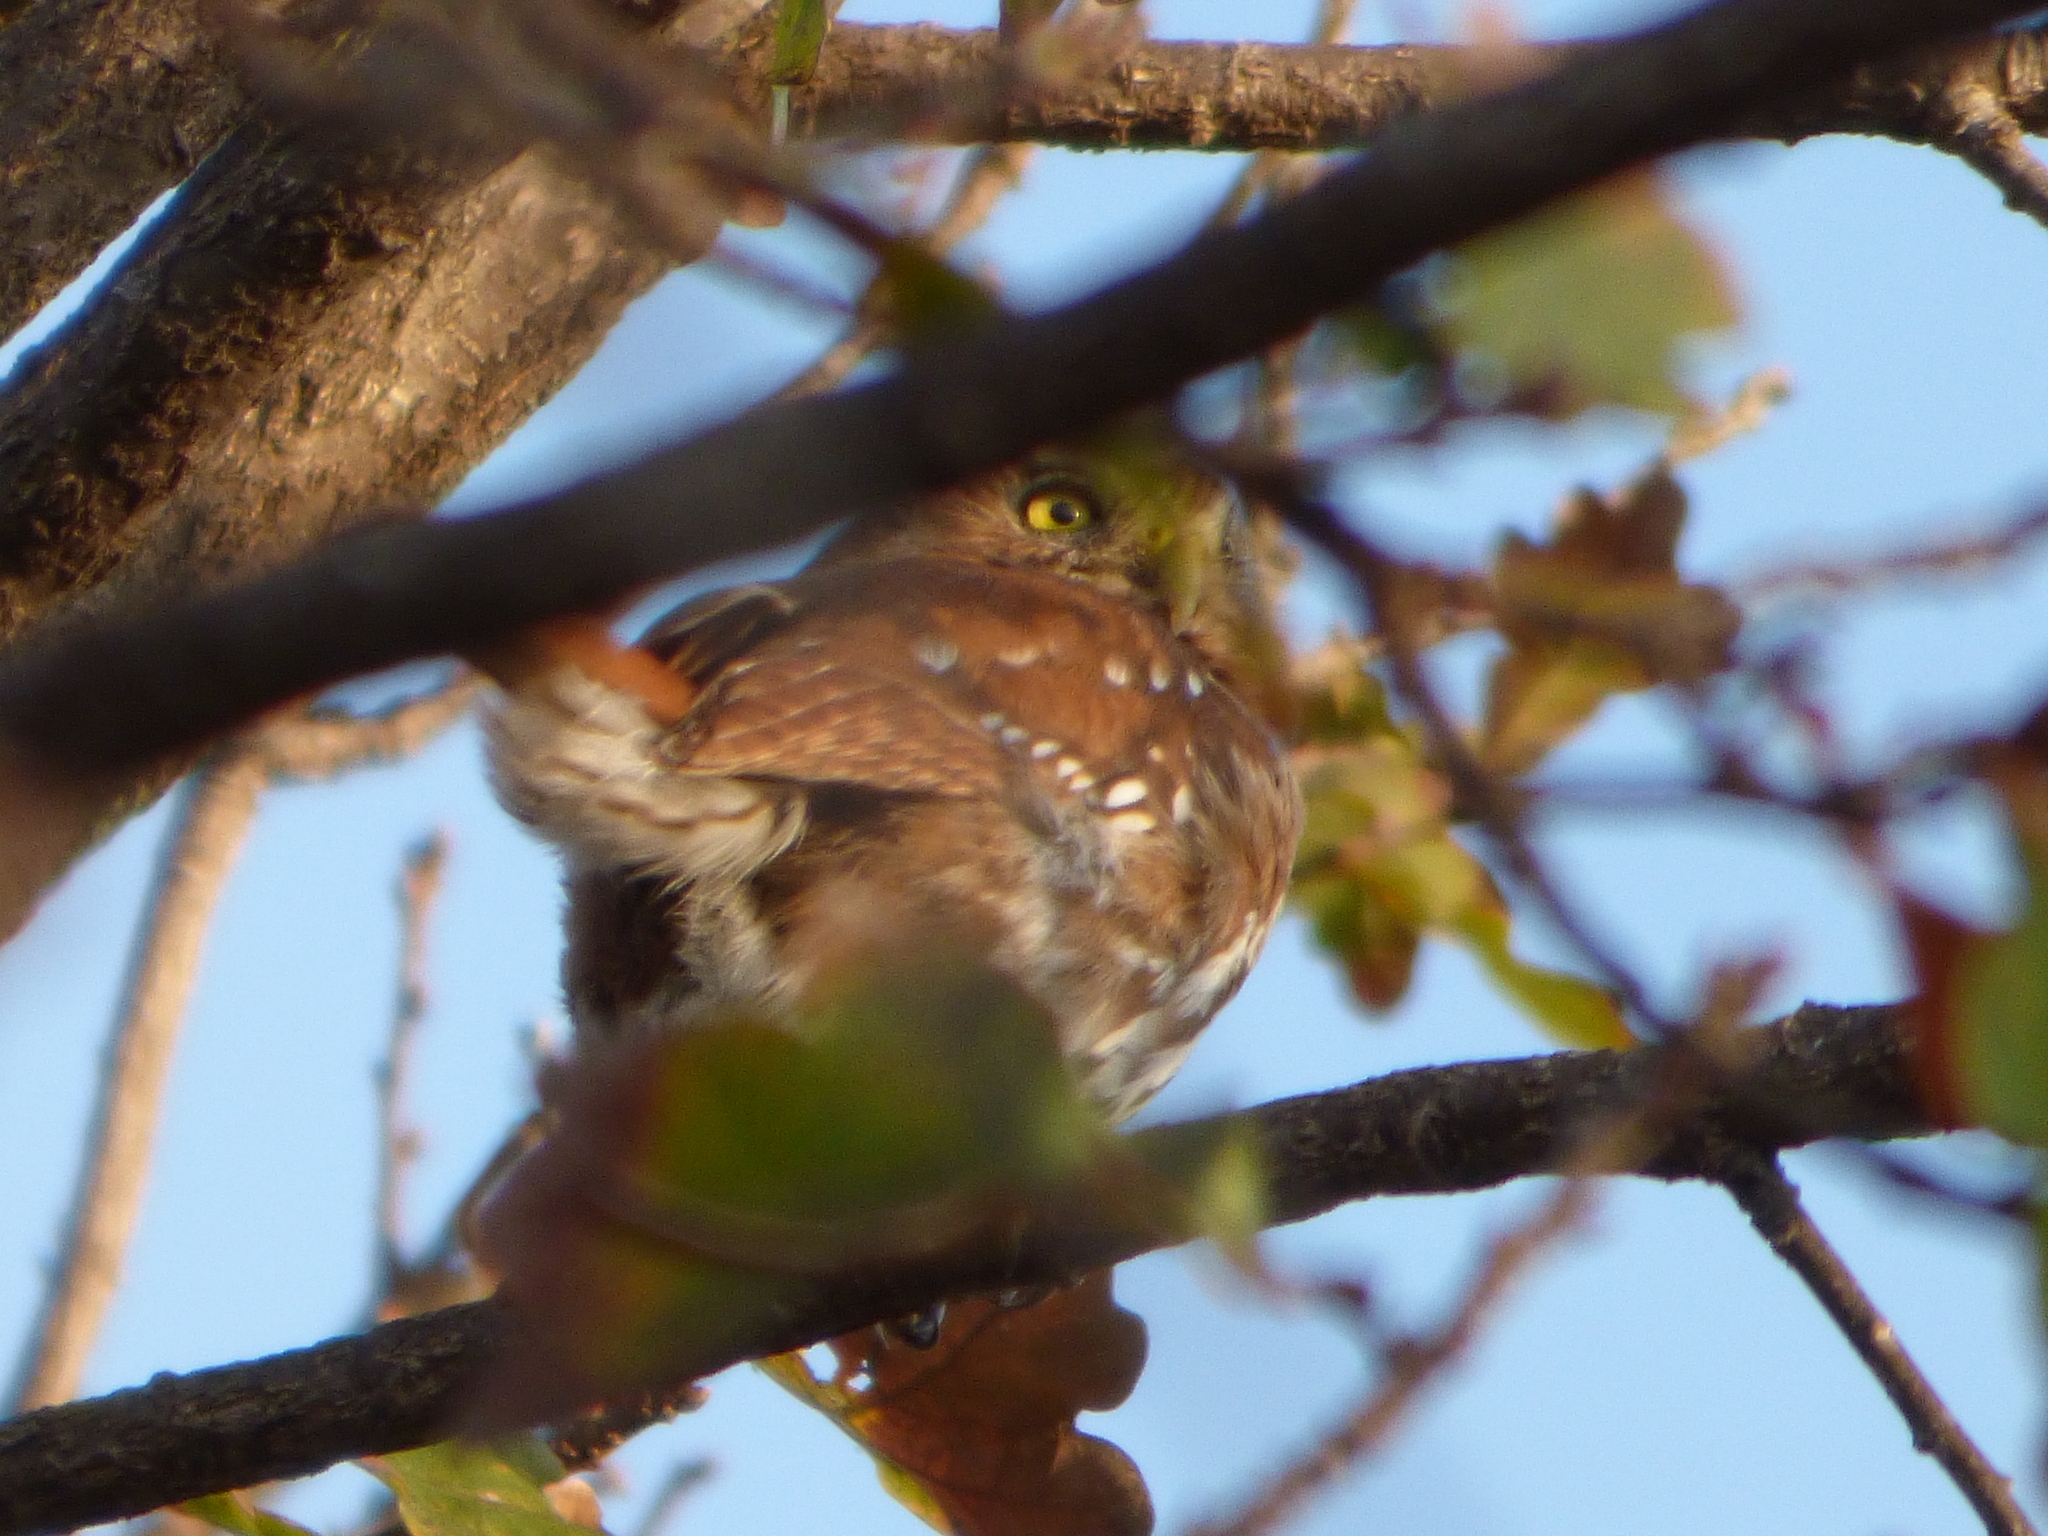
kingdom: Animalia
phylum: Chordata
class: Aves
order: Strigiformes
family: Strigidae
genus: Glaucidium
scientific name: Glaucidium brasilianum
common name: Ferruginous pygmy-owl
